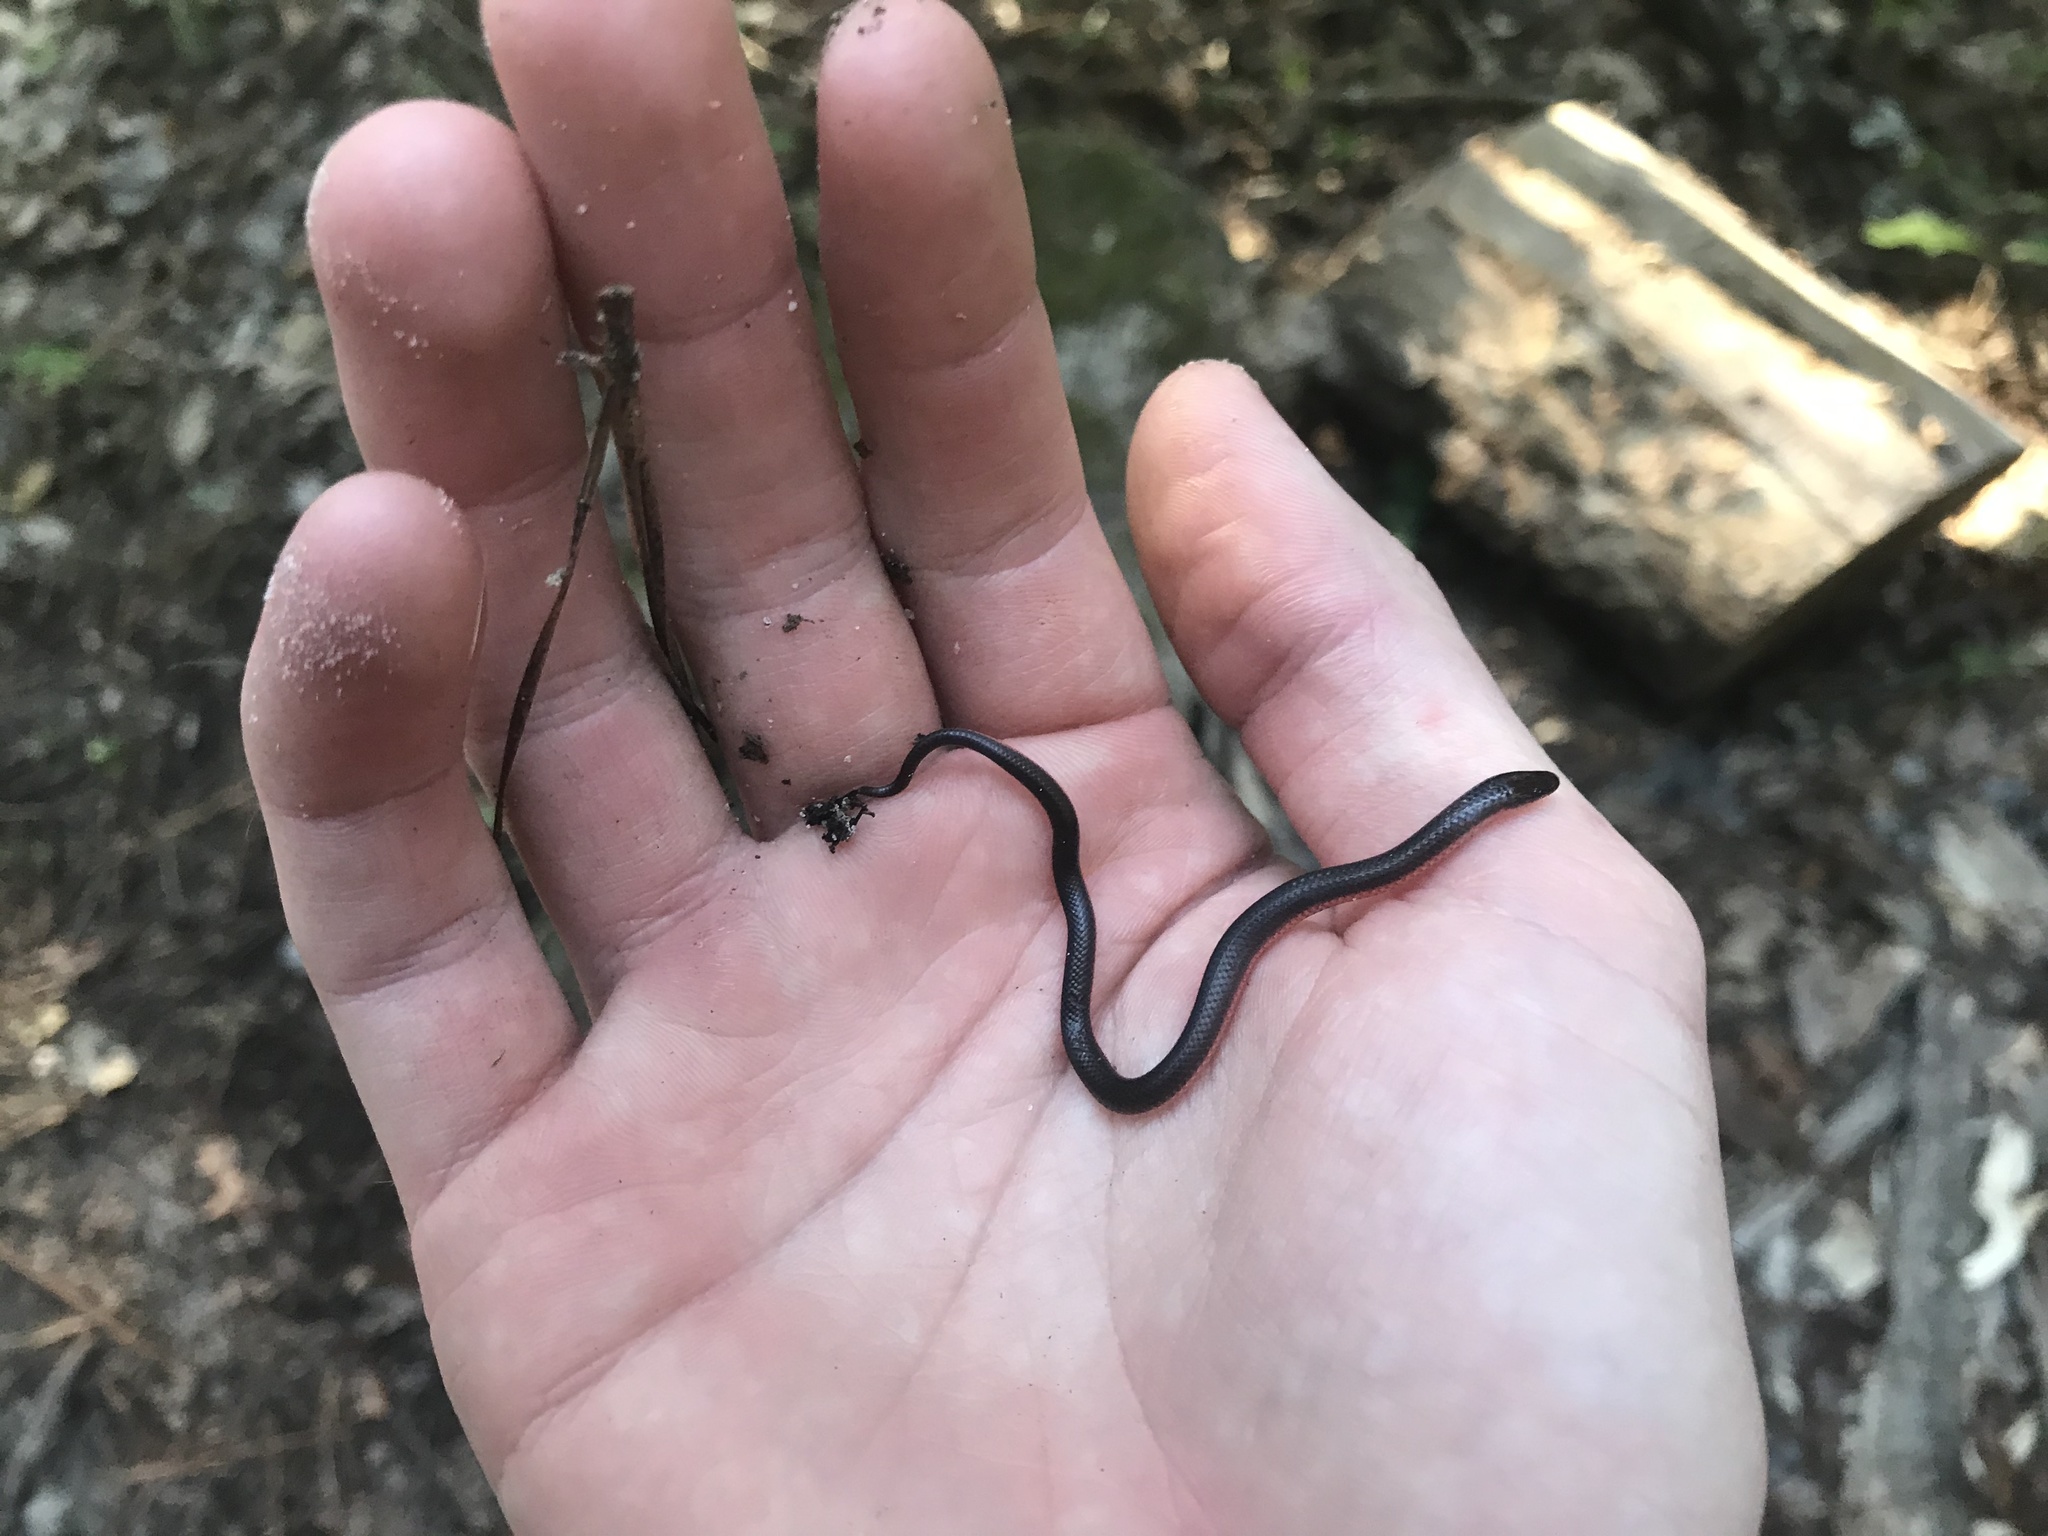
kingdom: Animalia
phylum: Chordata
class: Squamata
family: Colubridae
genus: Carphophis
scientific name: Carphophis amoenus
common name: Eastern worm snake
